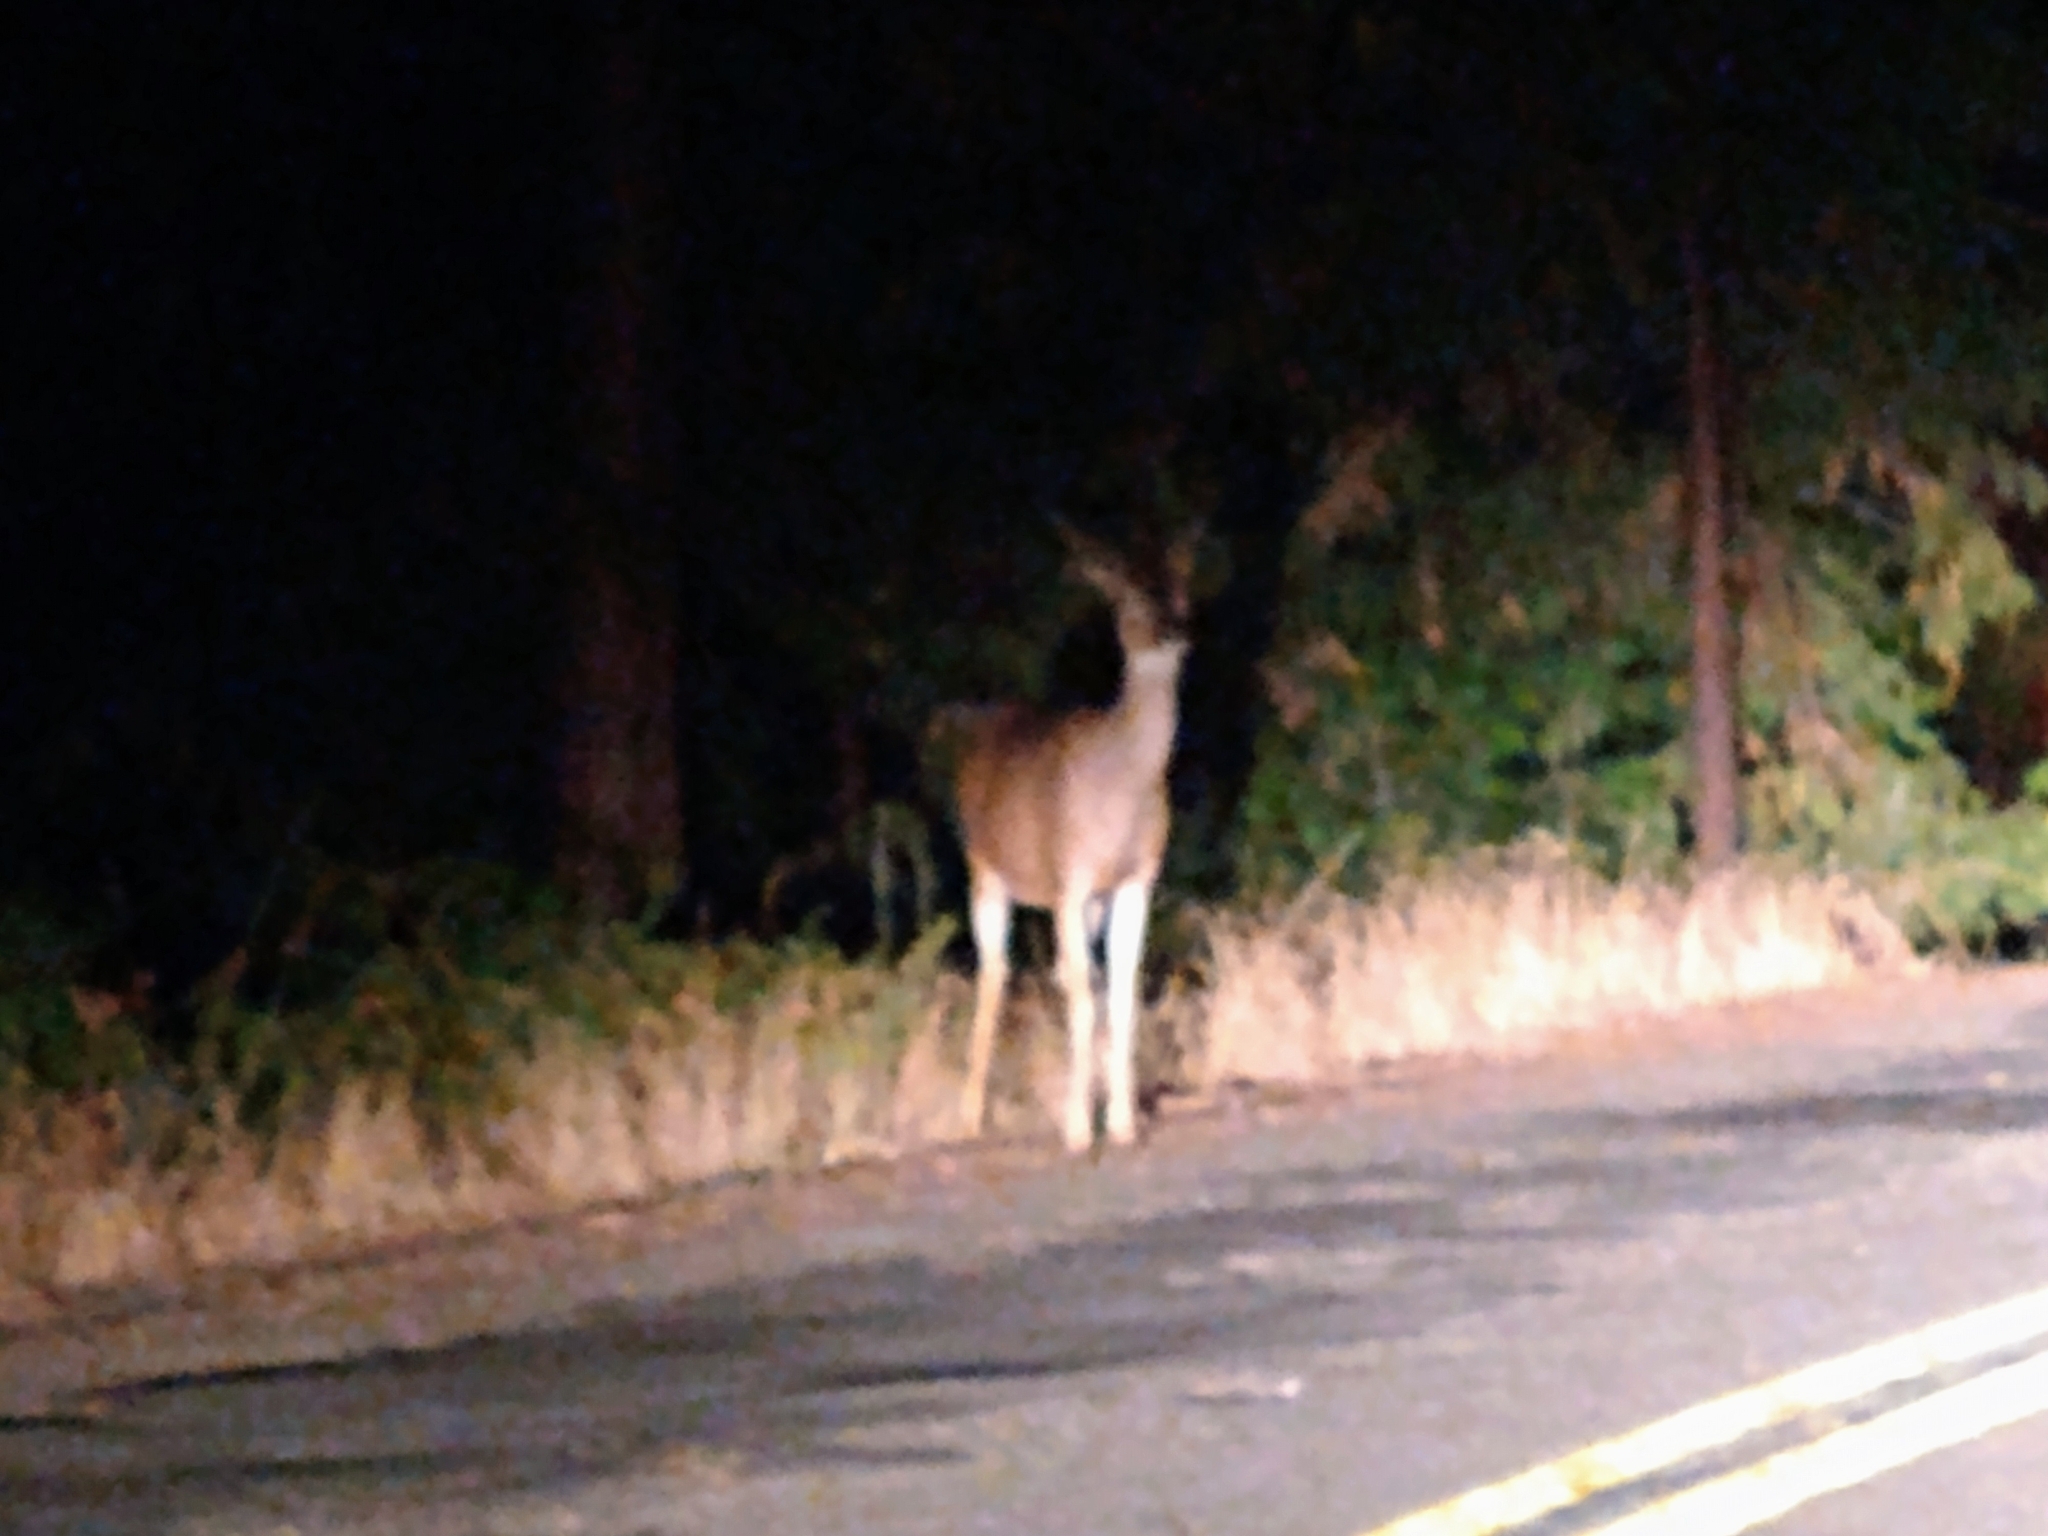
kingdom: Animalia
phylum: Chordata
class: Mammalia
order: Artiodactyla
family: Cervidae
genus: Odocoileus
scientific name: Odocoileus hemionus
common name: Mule deer
